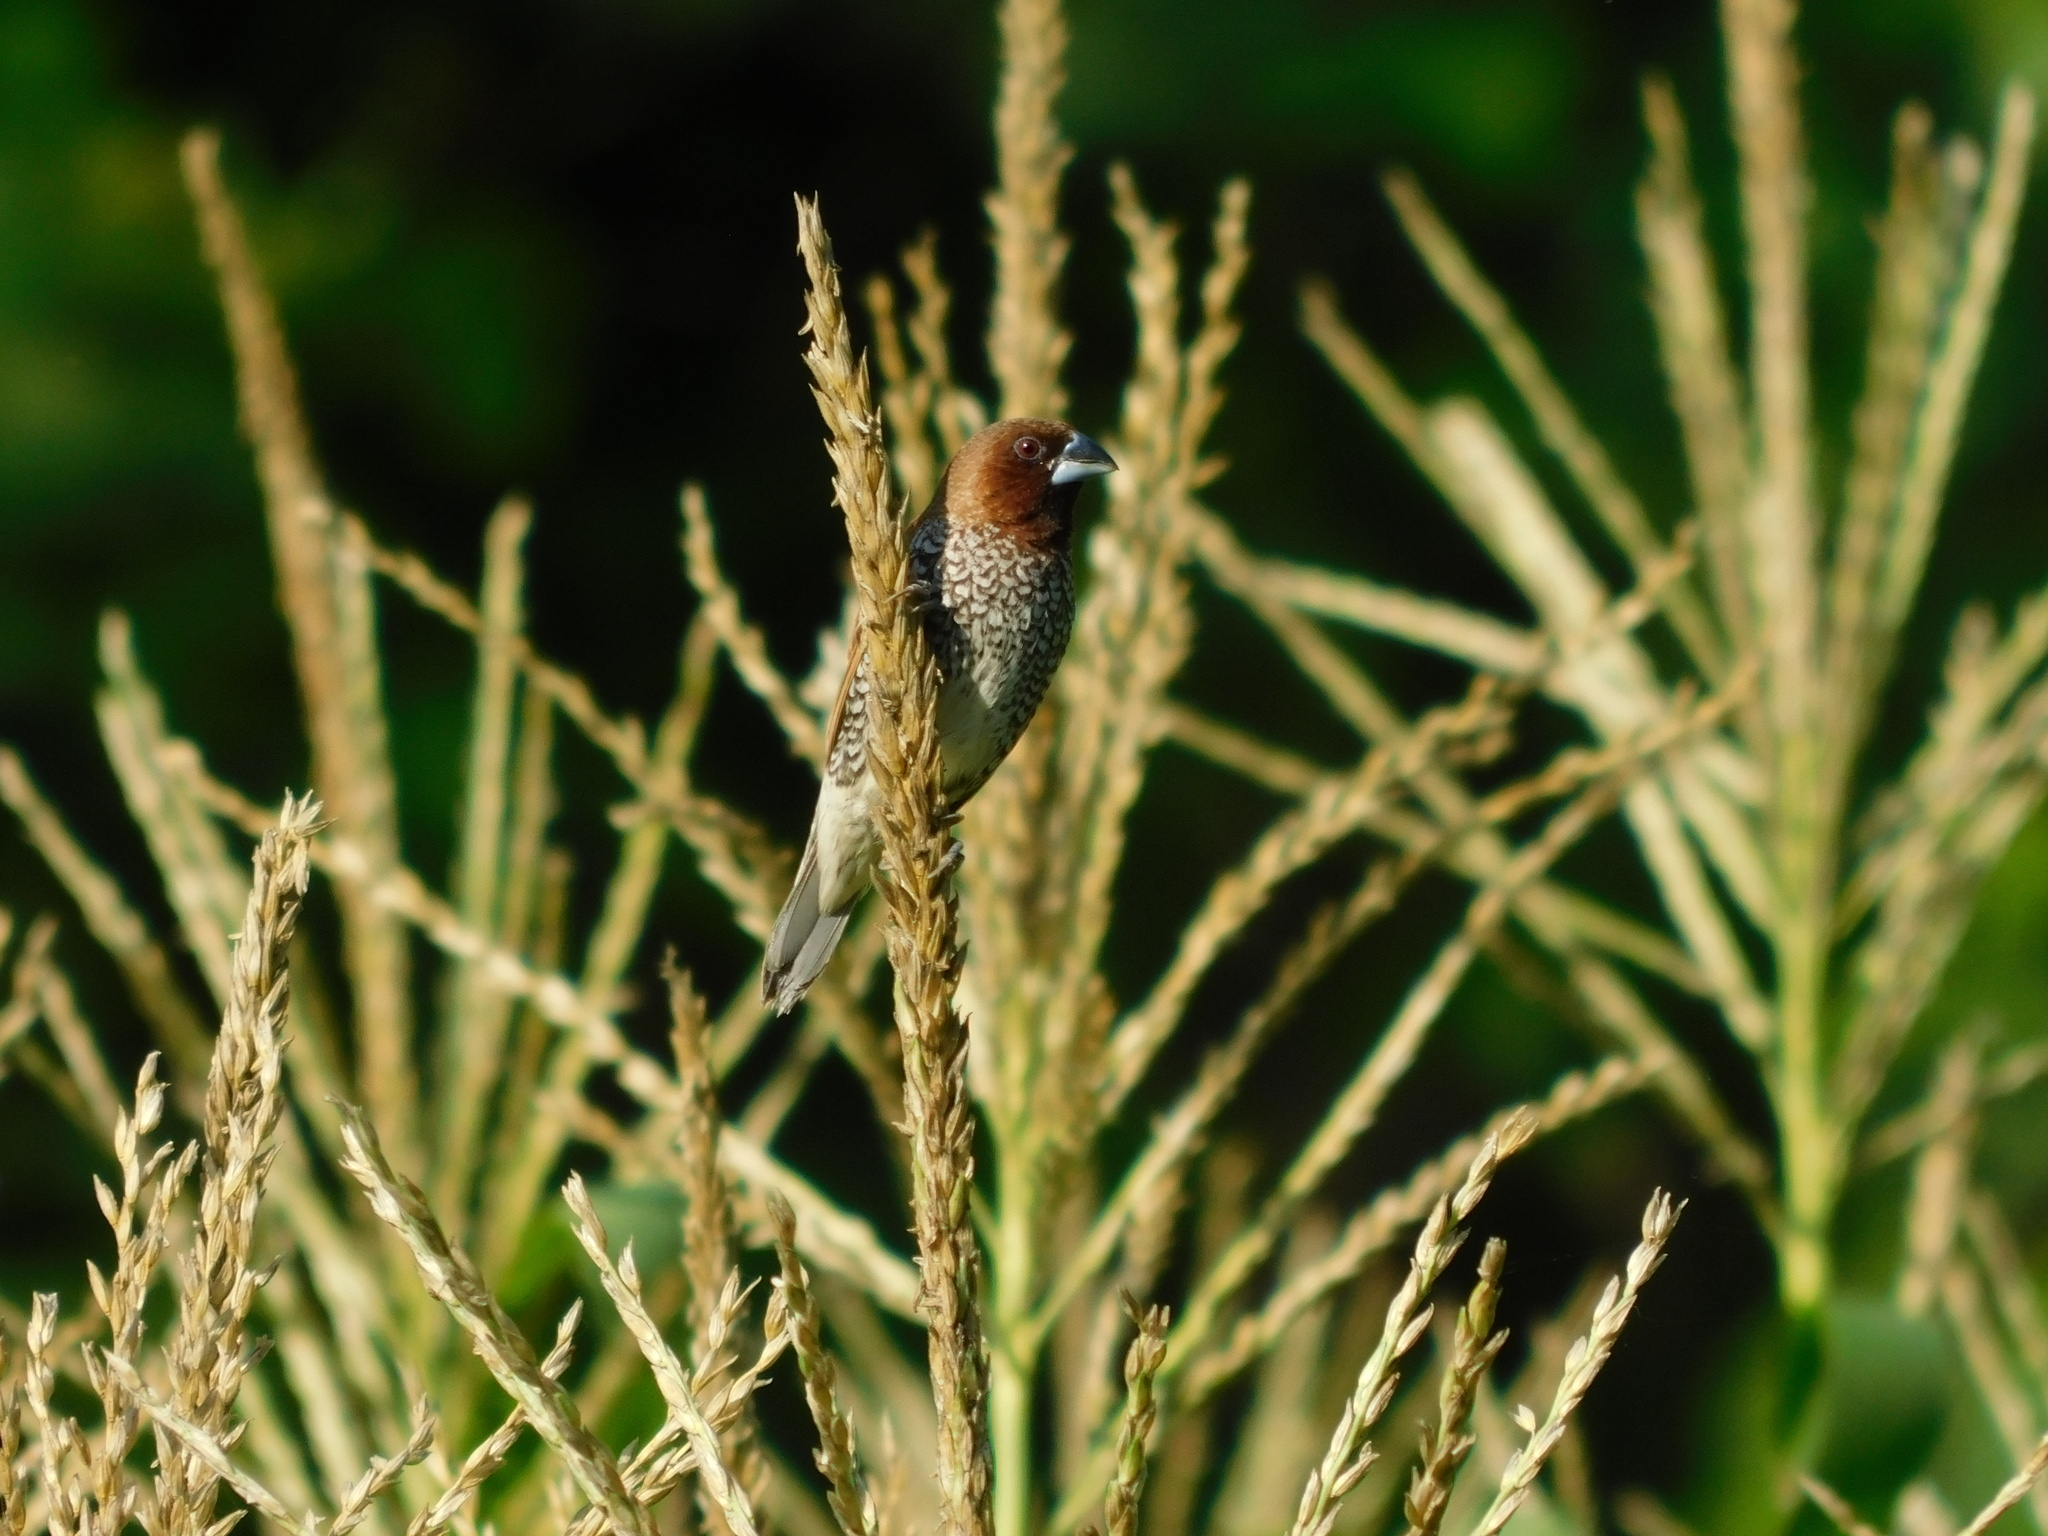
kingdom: Animalia
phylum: Chordata
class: Aves
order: Passeriformes
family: Estrildidae
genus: Lonchura
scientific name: Lonchura punctulata
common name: Scaly-breasted munia
